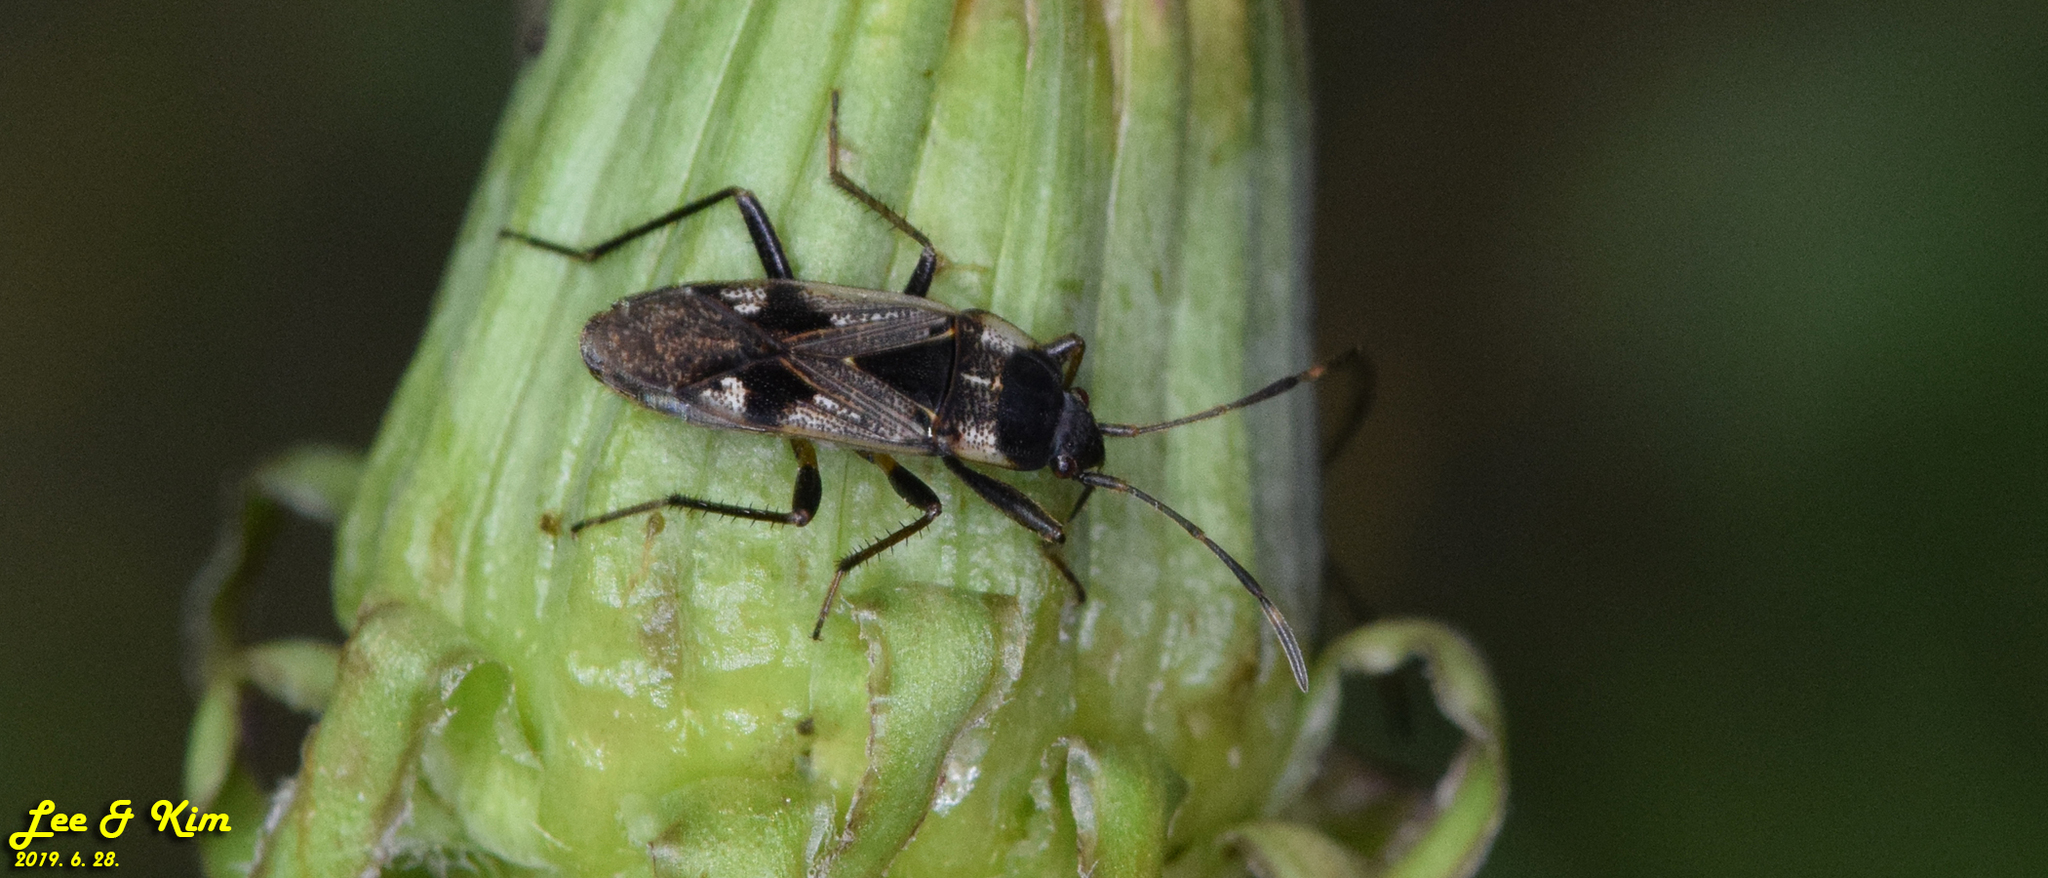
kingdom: Animalia
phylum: Arthropoda
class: Insecta
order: Hemiptera
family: Rhyparochromidae
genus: Panaorus
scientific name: Panaorus albomaculatus
